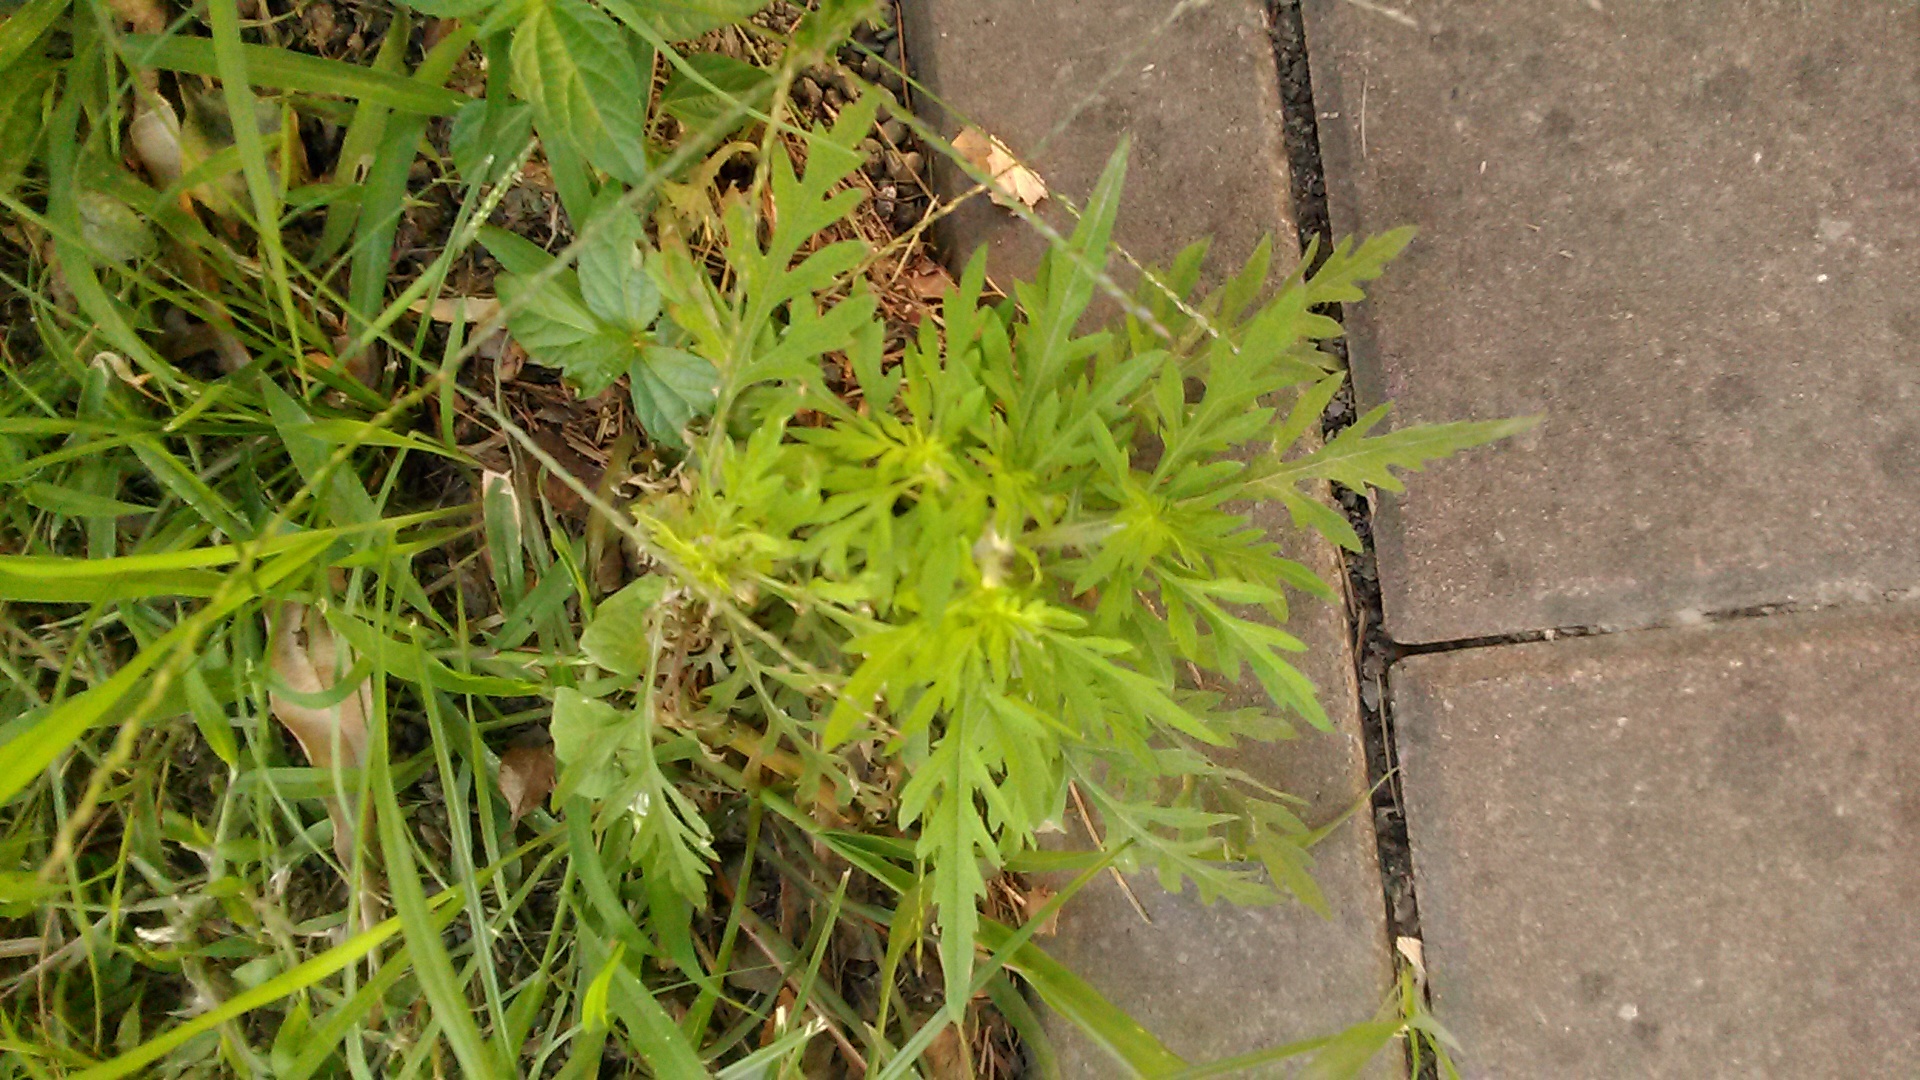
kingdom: Plantae
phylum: Tracheophyta
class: Magnoliopsida
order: Asterales
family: Asteraceae
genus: Ambrosia
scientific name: Ambrosia artemisiifolia
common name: Annual ragweed
